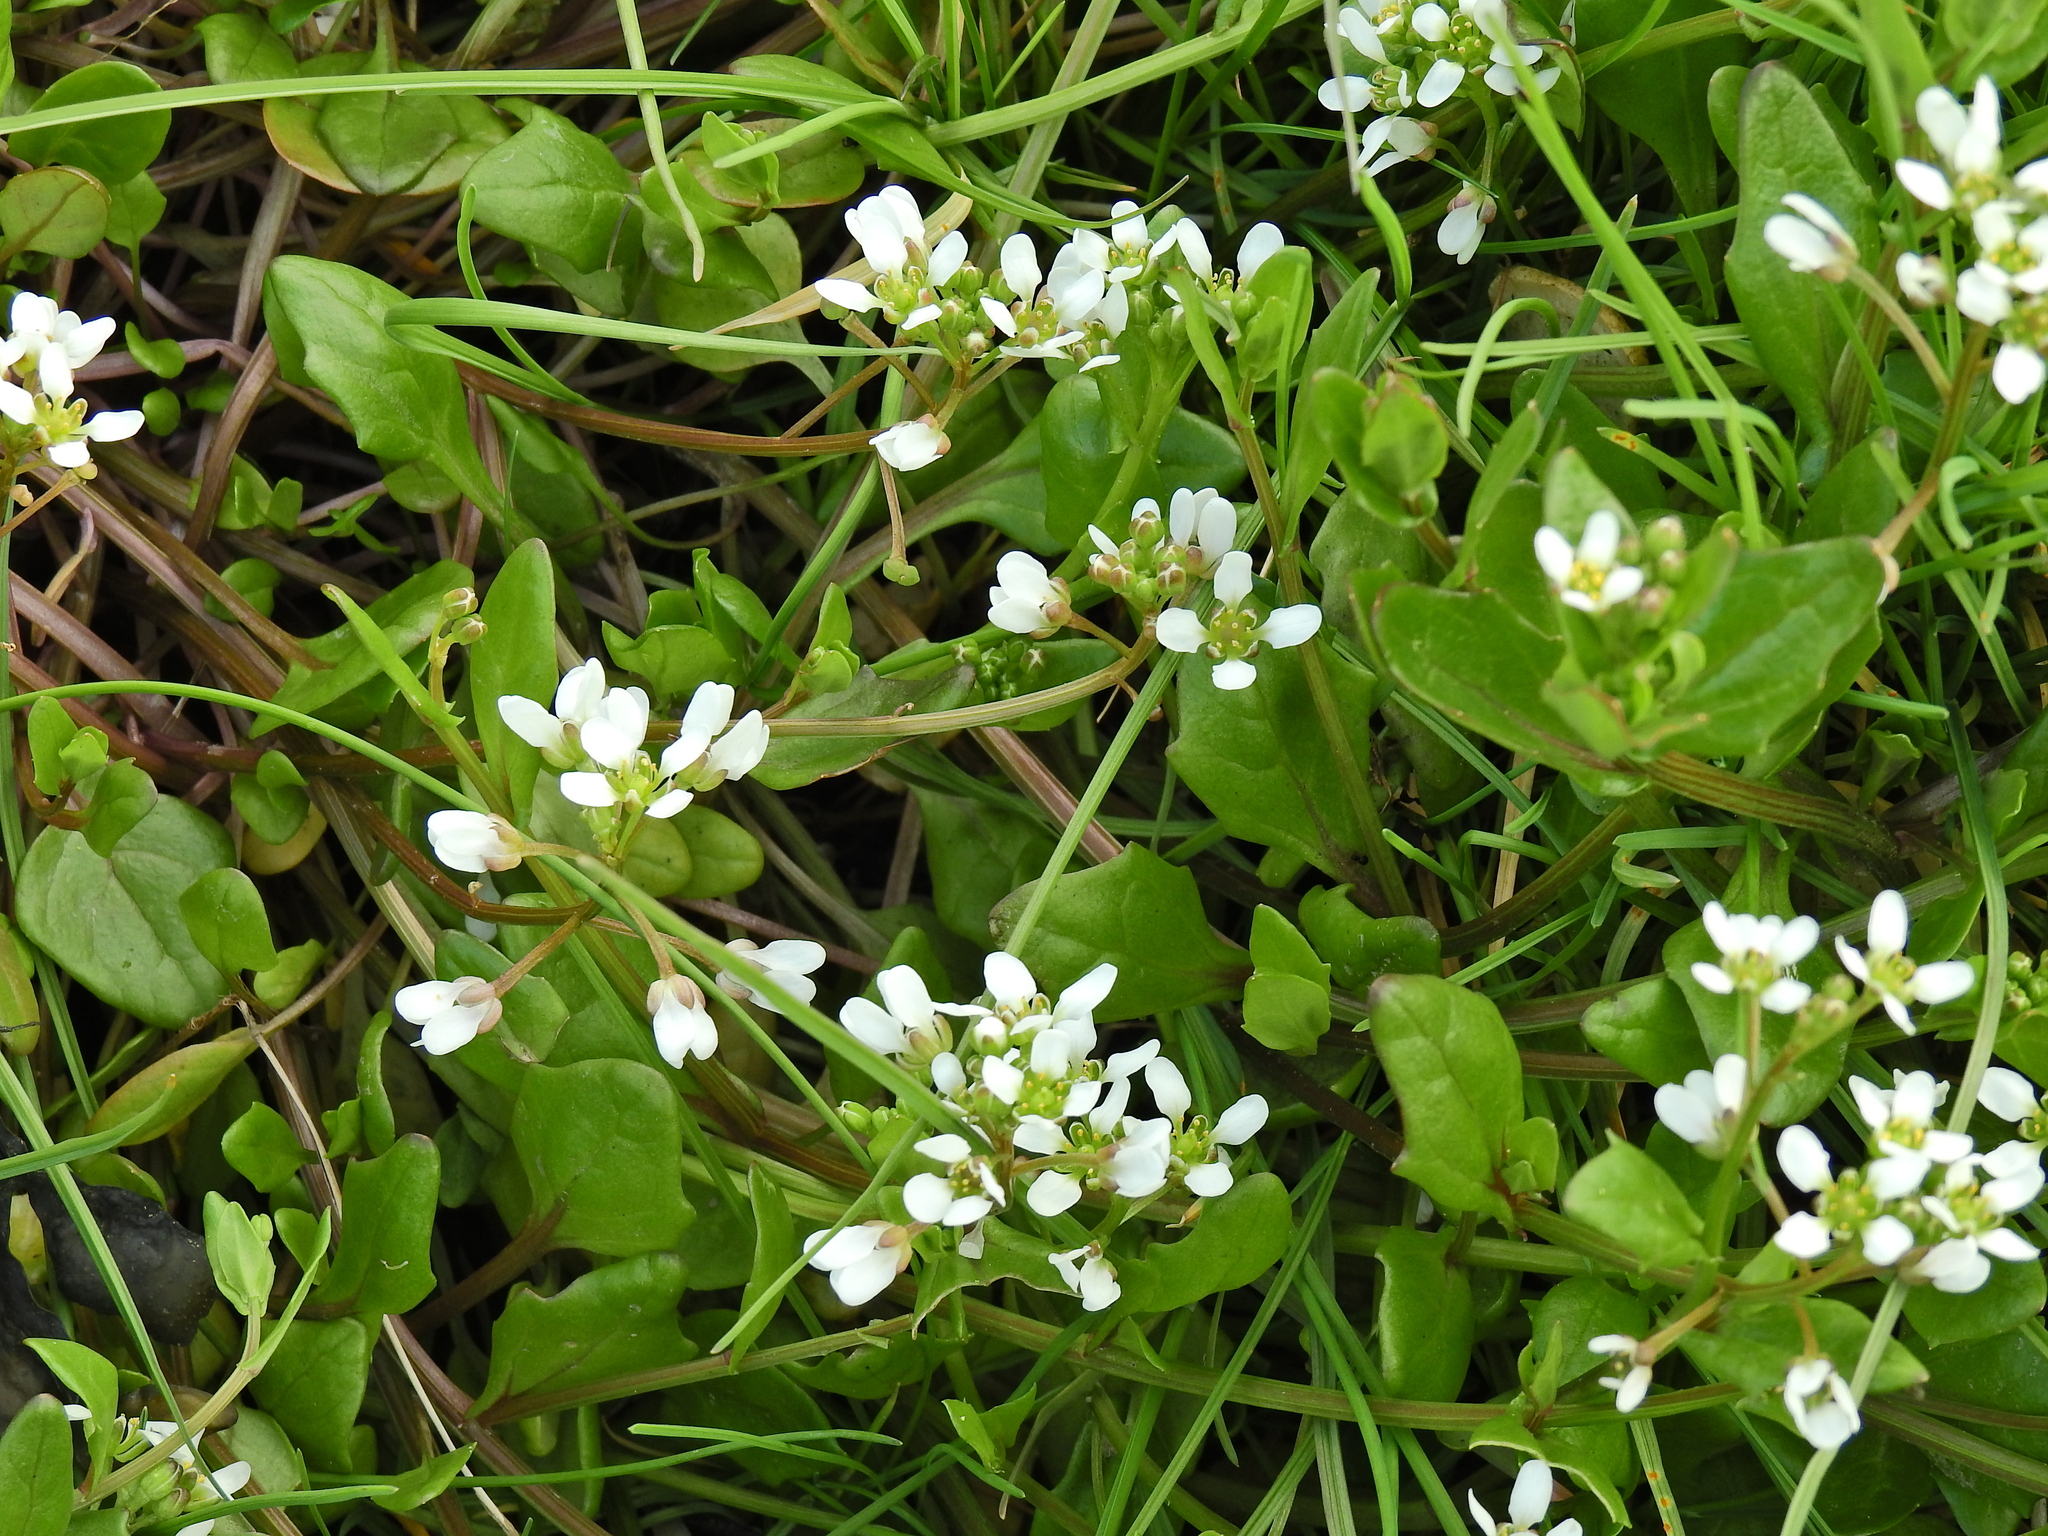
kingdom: Plantae
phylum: Tracheophyta
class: Magnoliopsida
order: Brassicales
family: Brassicaceae
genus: Cochlearia
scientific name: Cochlearia officinalis
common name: Scurvy-grass
